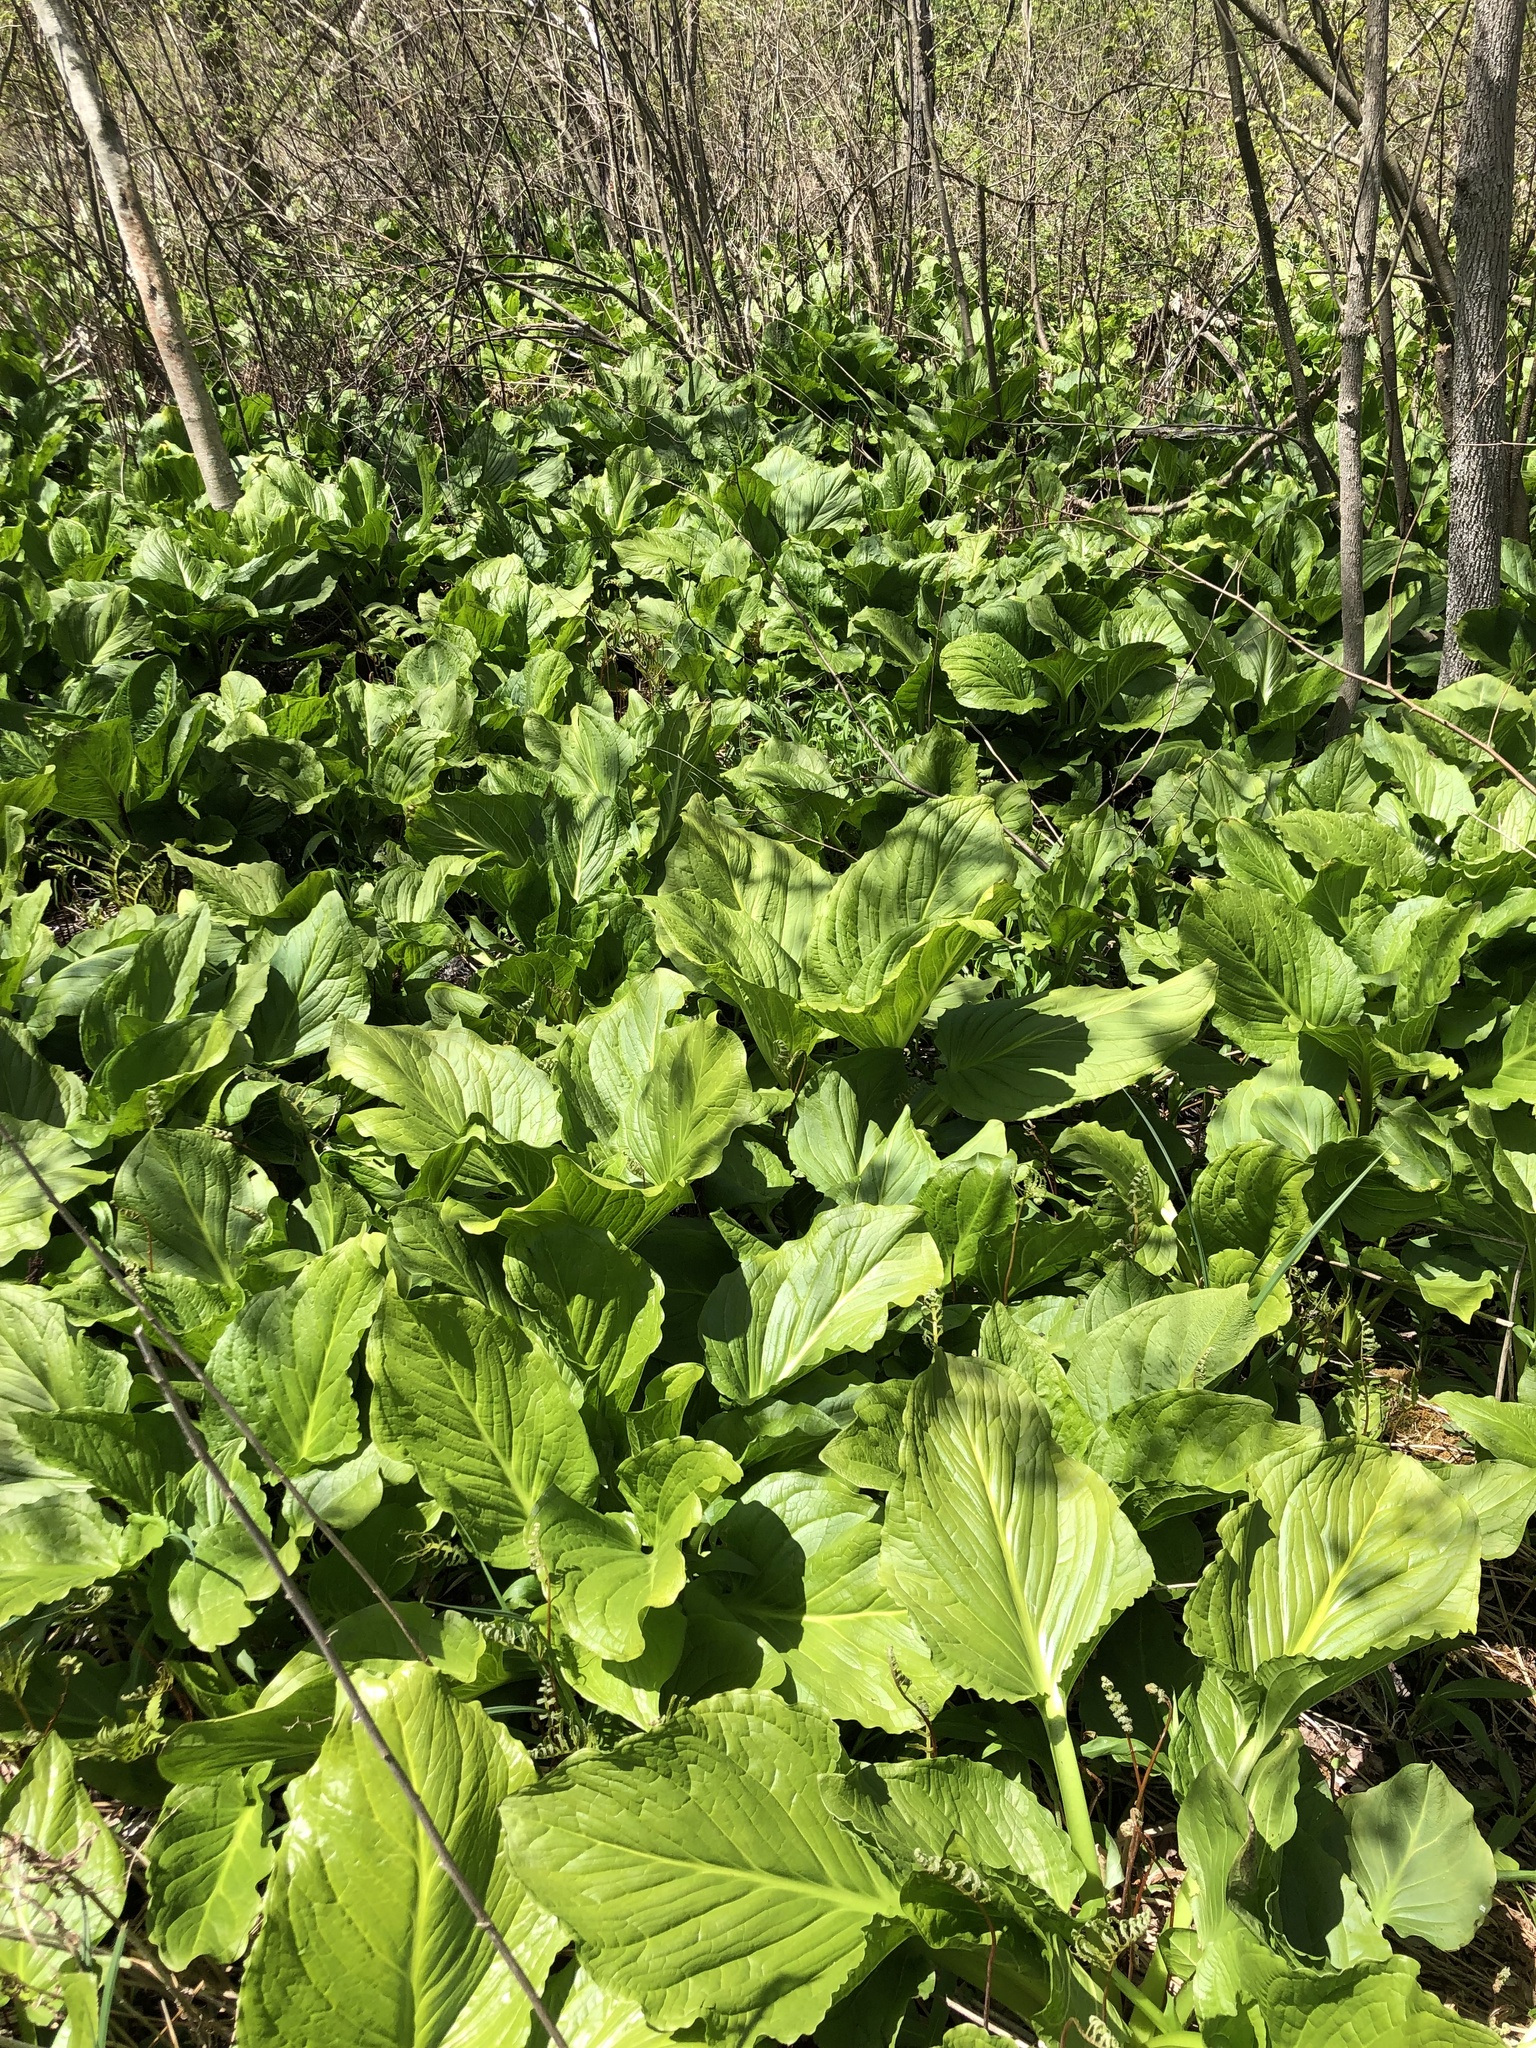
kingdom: Plantae
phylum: Tracheophyta
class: Liliopsida
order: Alismatales
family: Araceae
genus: Symplocarpus
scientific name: Symplocarpus foetidus
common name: Eastern skunk cabbage
